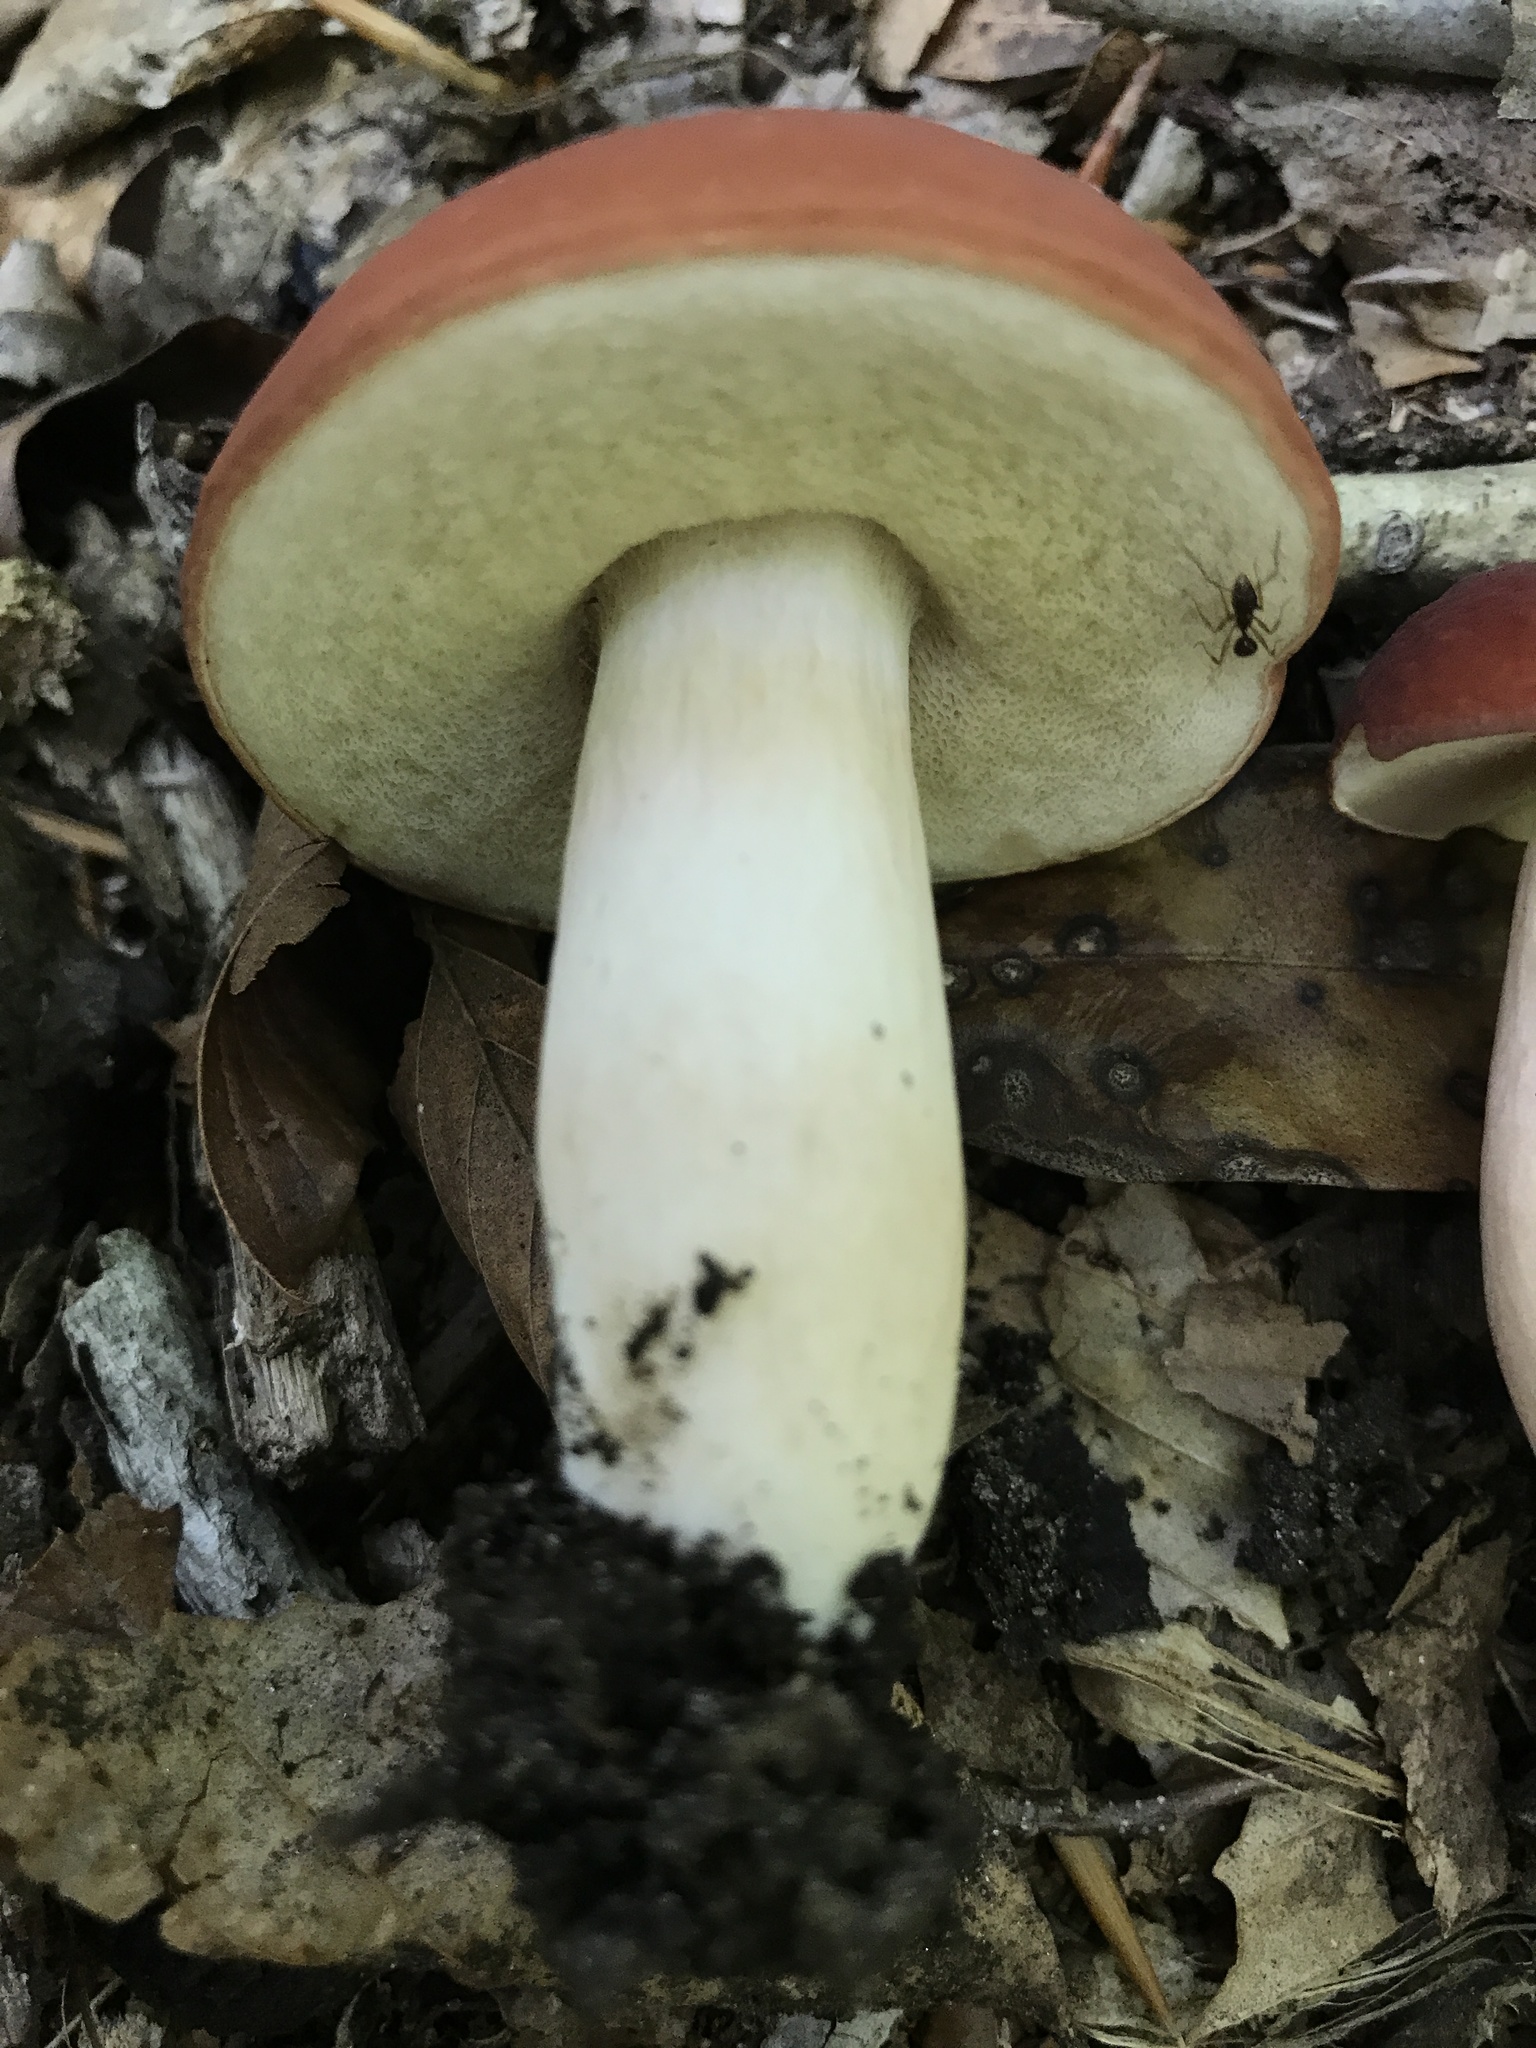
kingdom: Fungi
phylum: Basidiomycota
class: Agaricomycetes
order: Boletales
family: Boletaceae
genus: Xanthoconium
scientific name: Xanthoconium purpureum
